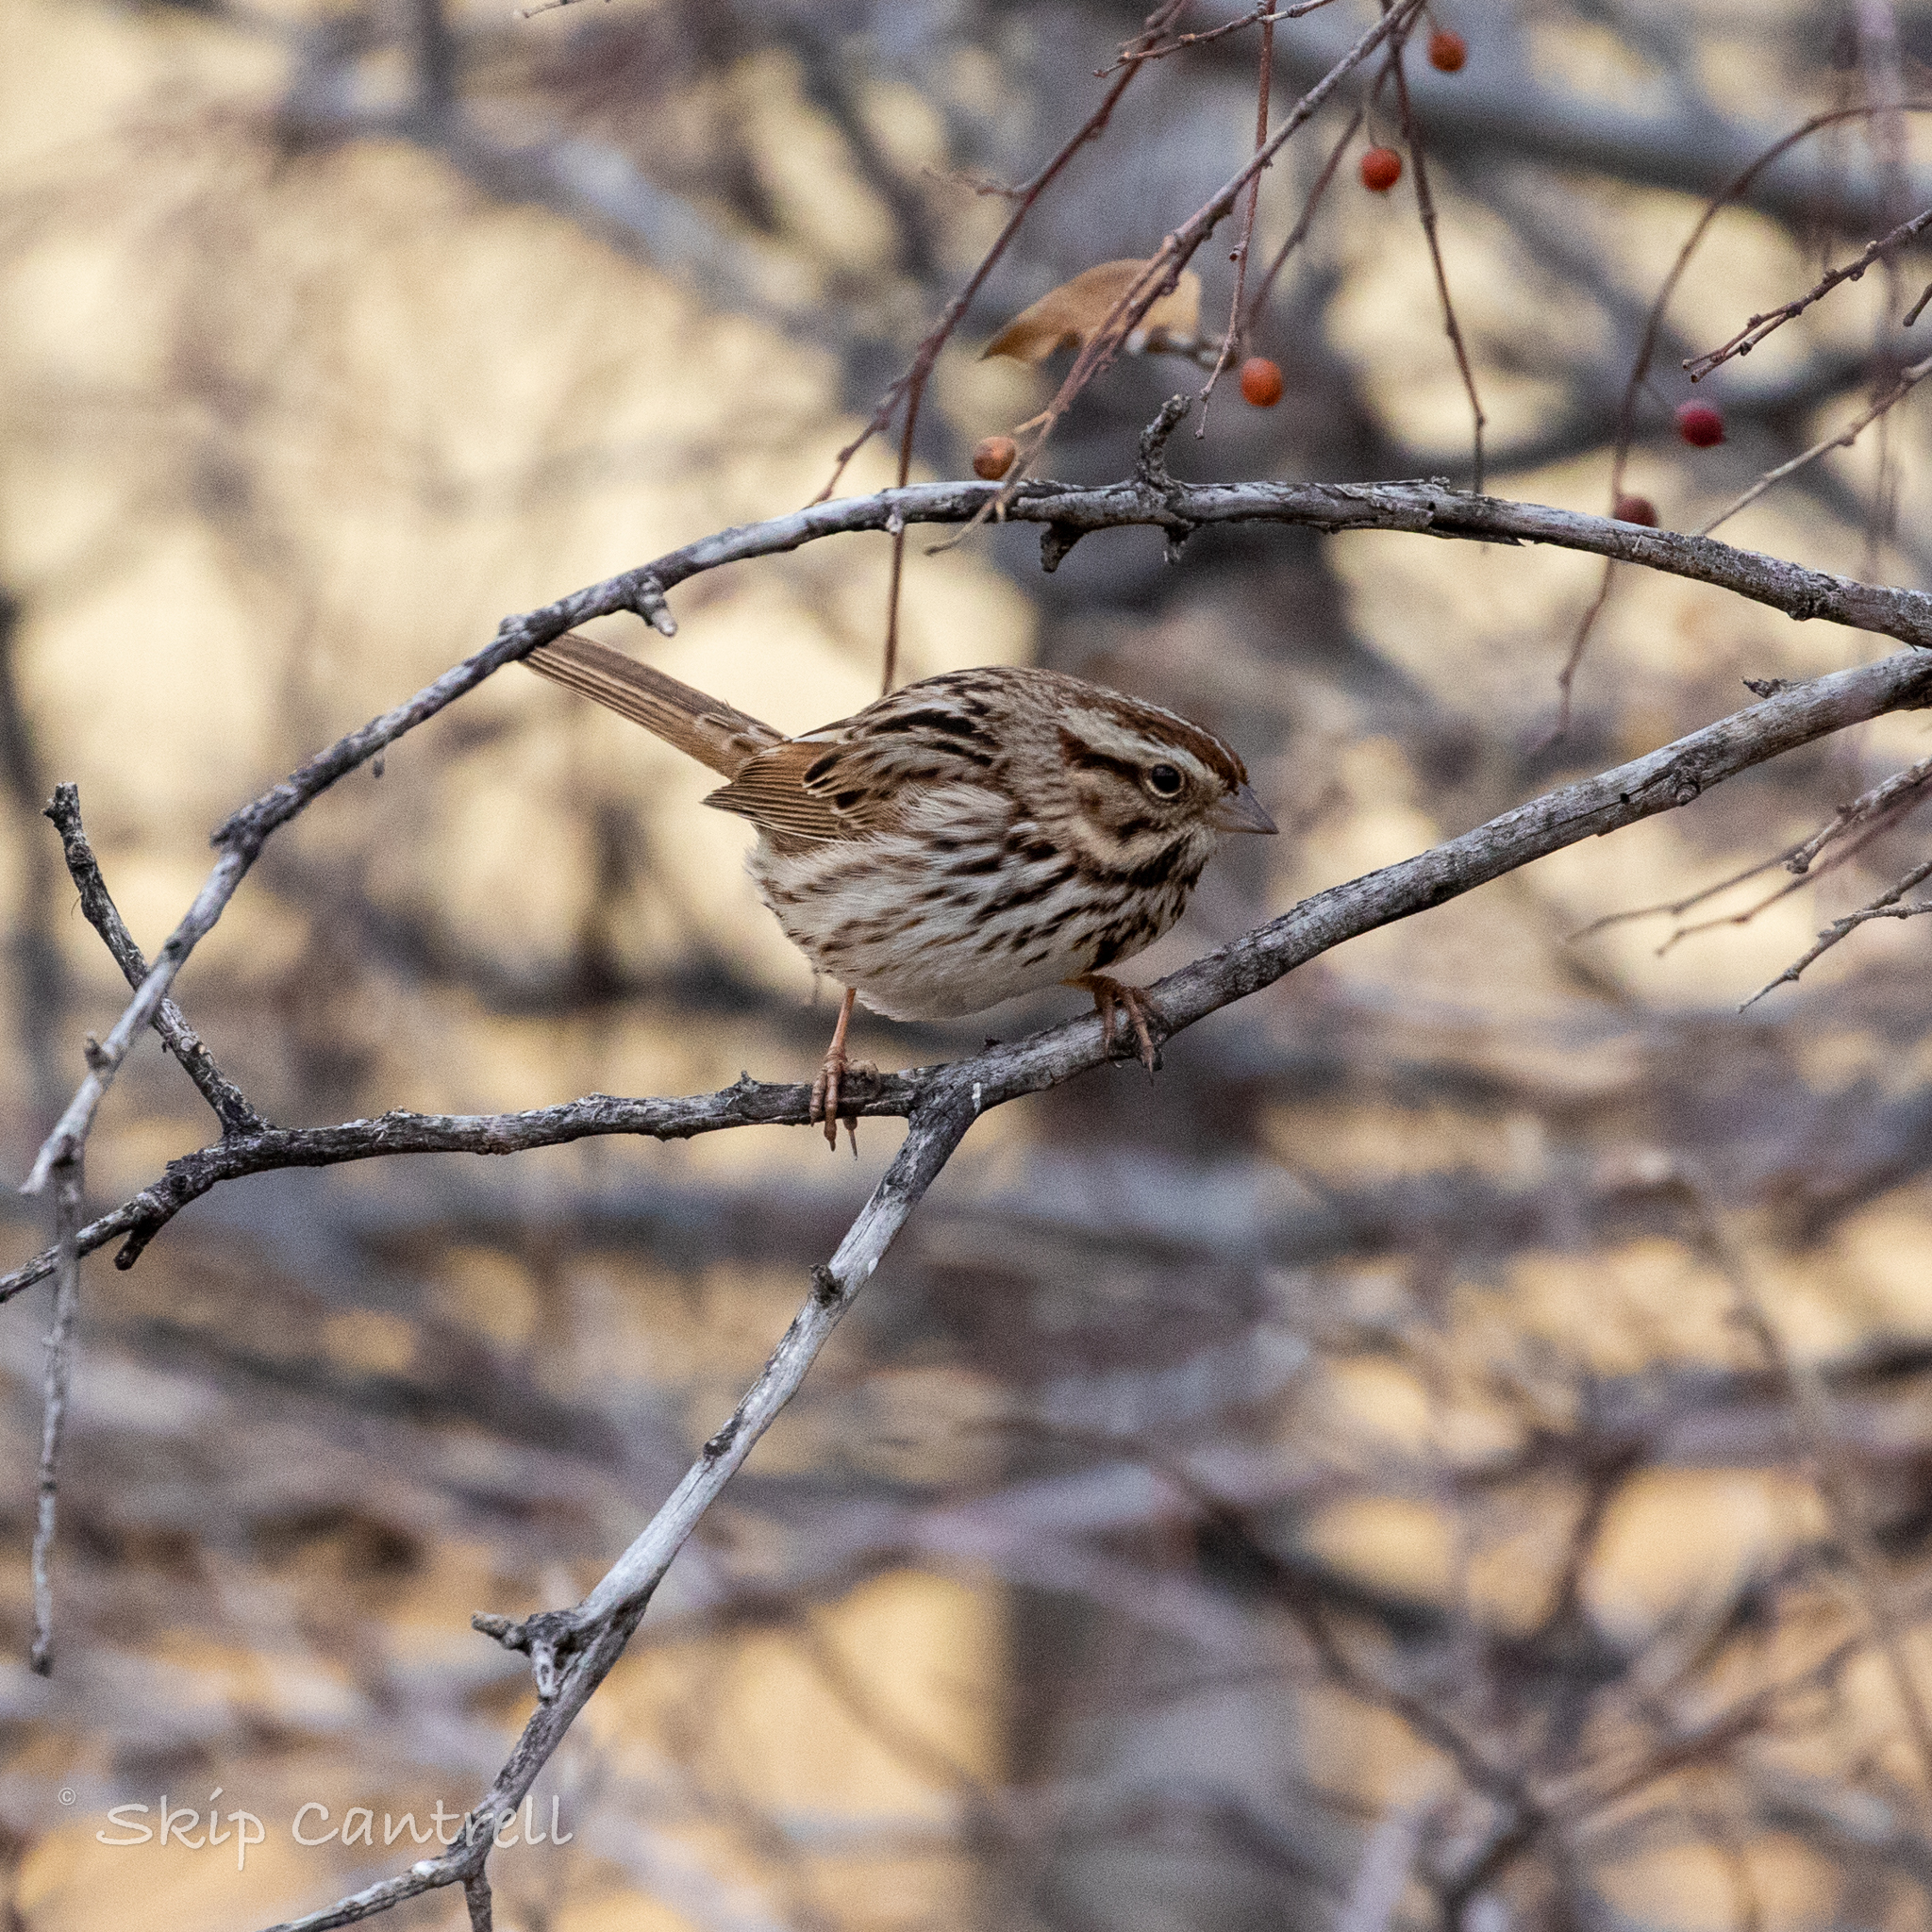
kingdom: Animalia
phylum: Chordata
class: Aves
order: Passeriformes
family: Passerellidae
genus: Melospiza
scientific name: Melospiza melodia
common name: Song sparrow
